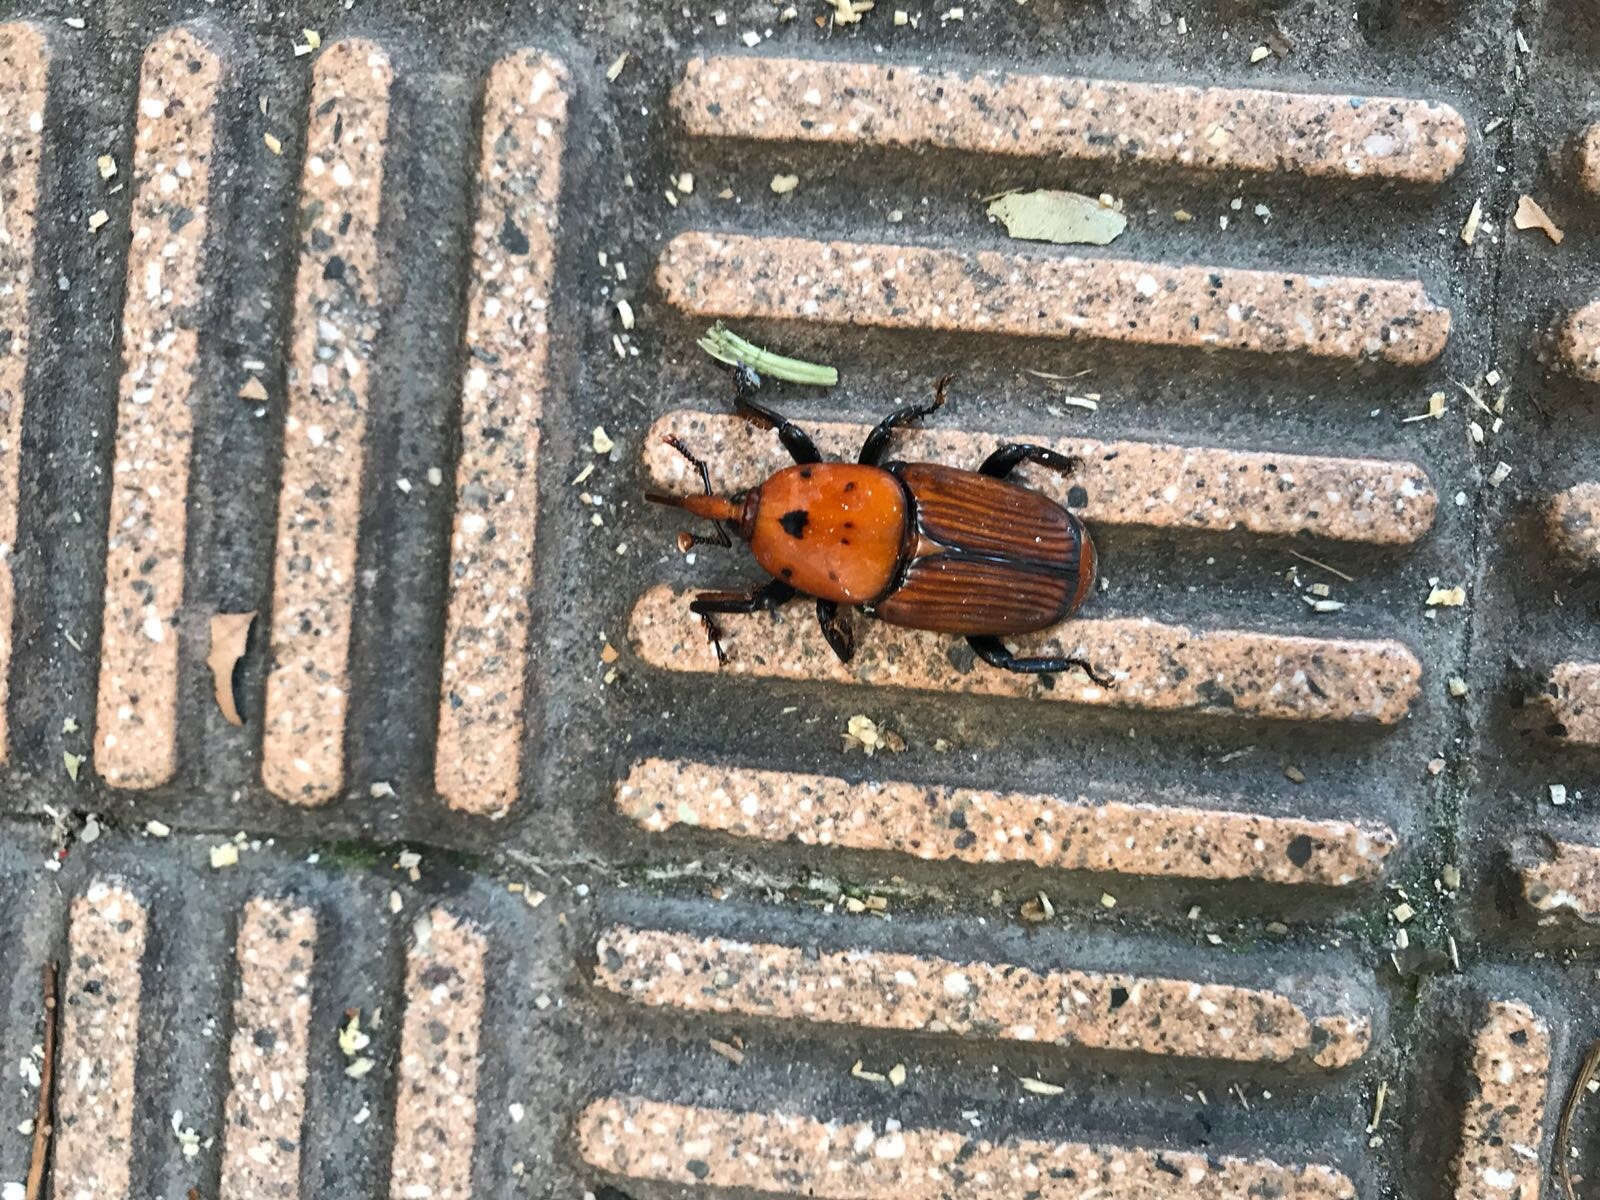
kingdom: Animalia
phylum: Arthropoda
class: Insecta
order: Coleoptera
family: Dryophthoridae
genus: Rhynchophorus
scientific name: Rhynchophorus ferrugineus
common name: Red palm weevil
